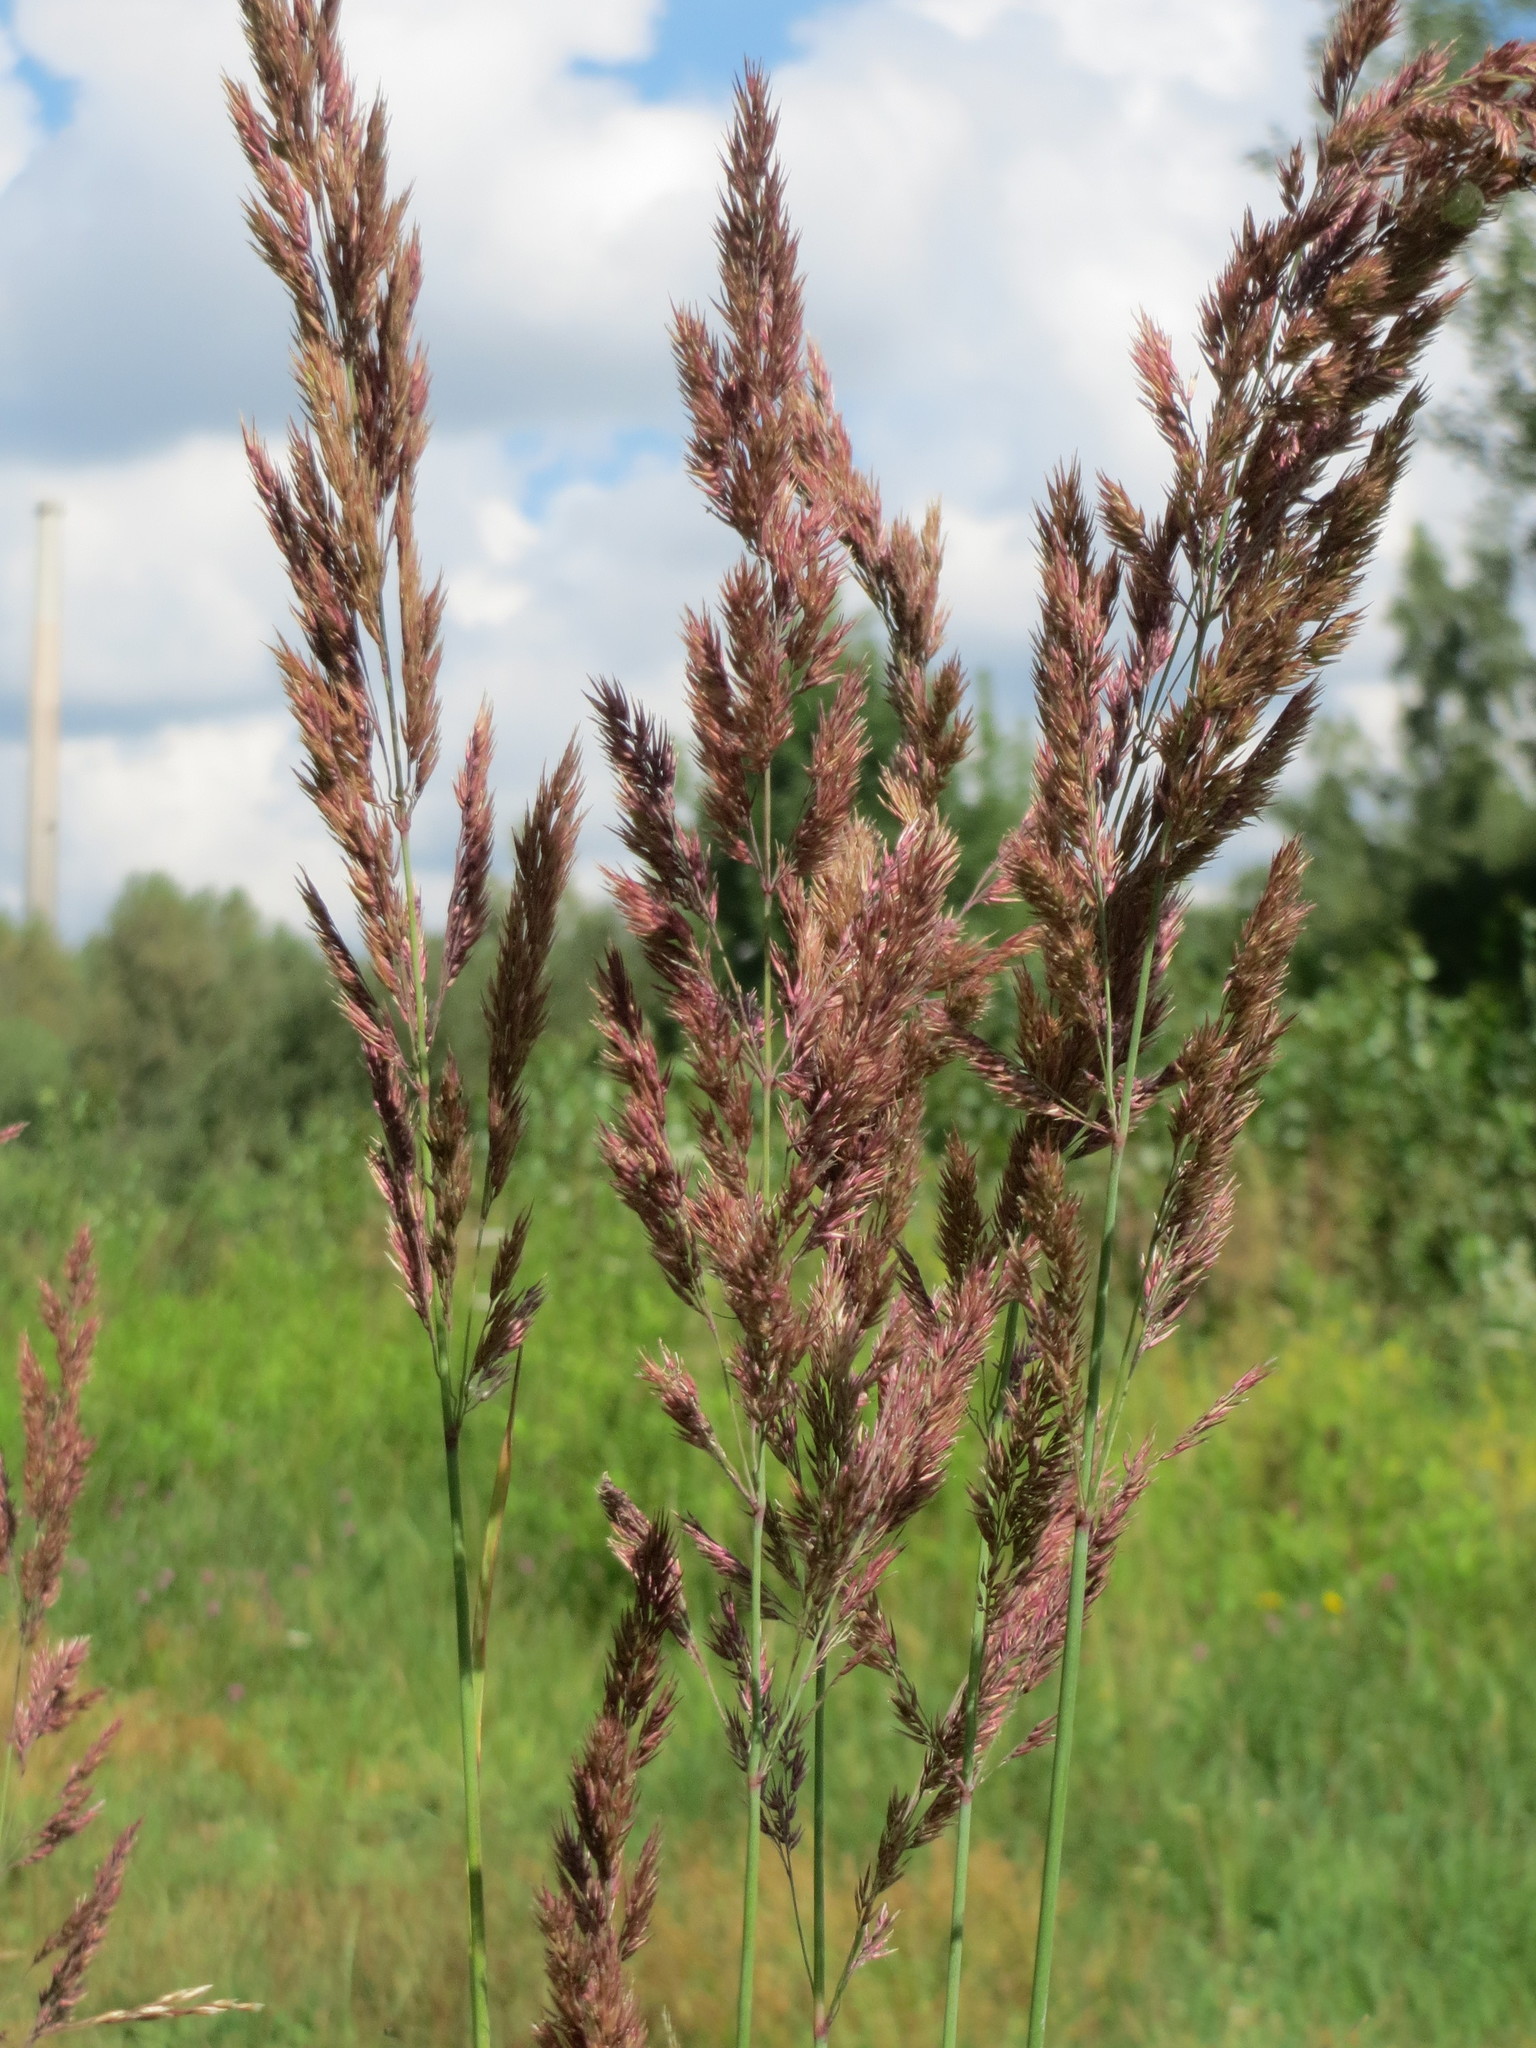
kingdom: Plantae
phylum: Tracheophyta
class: Liliopsida
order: Poales
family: Poaceae
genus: Holcus
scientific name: Holcus lanatus
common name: Yorkshire-fog
